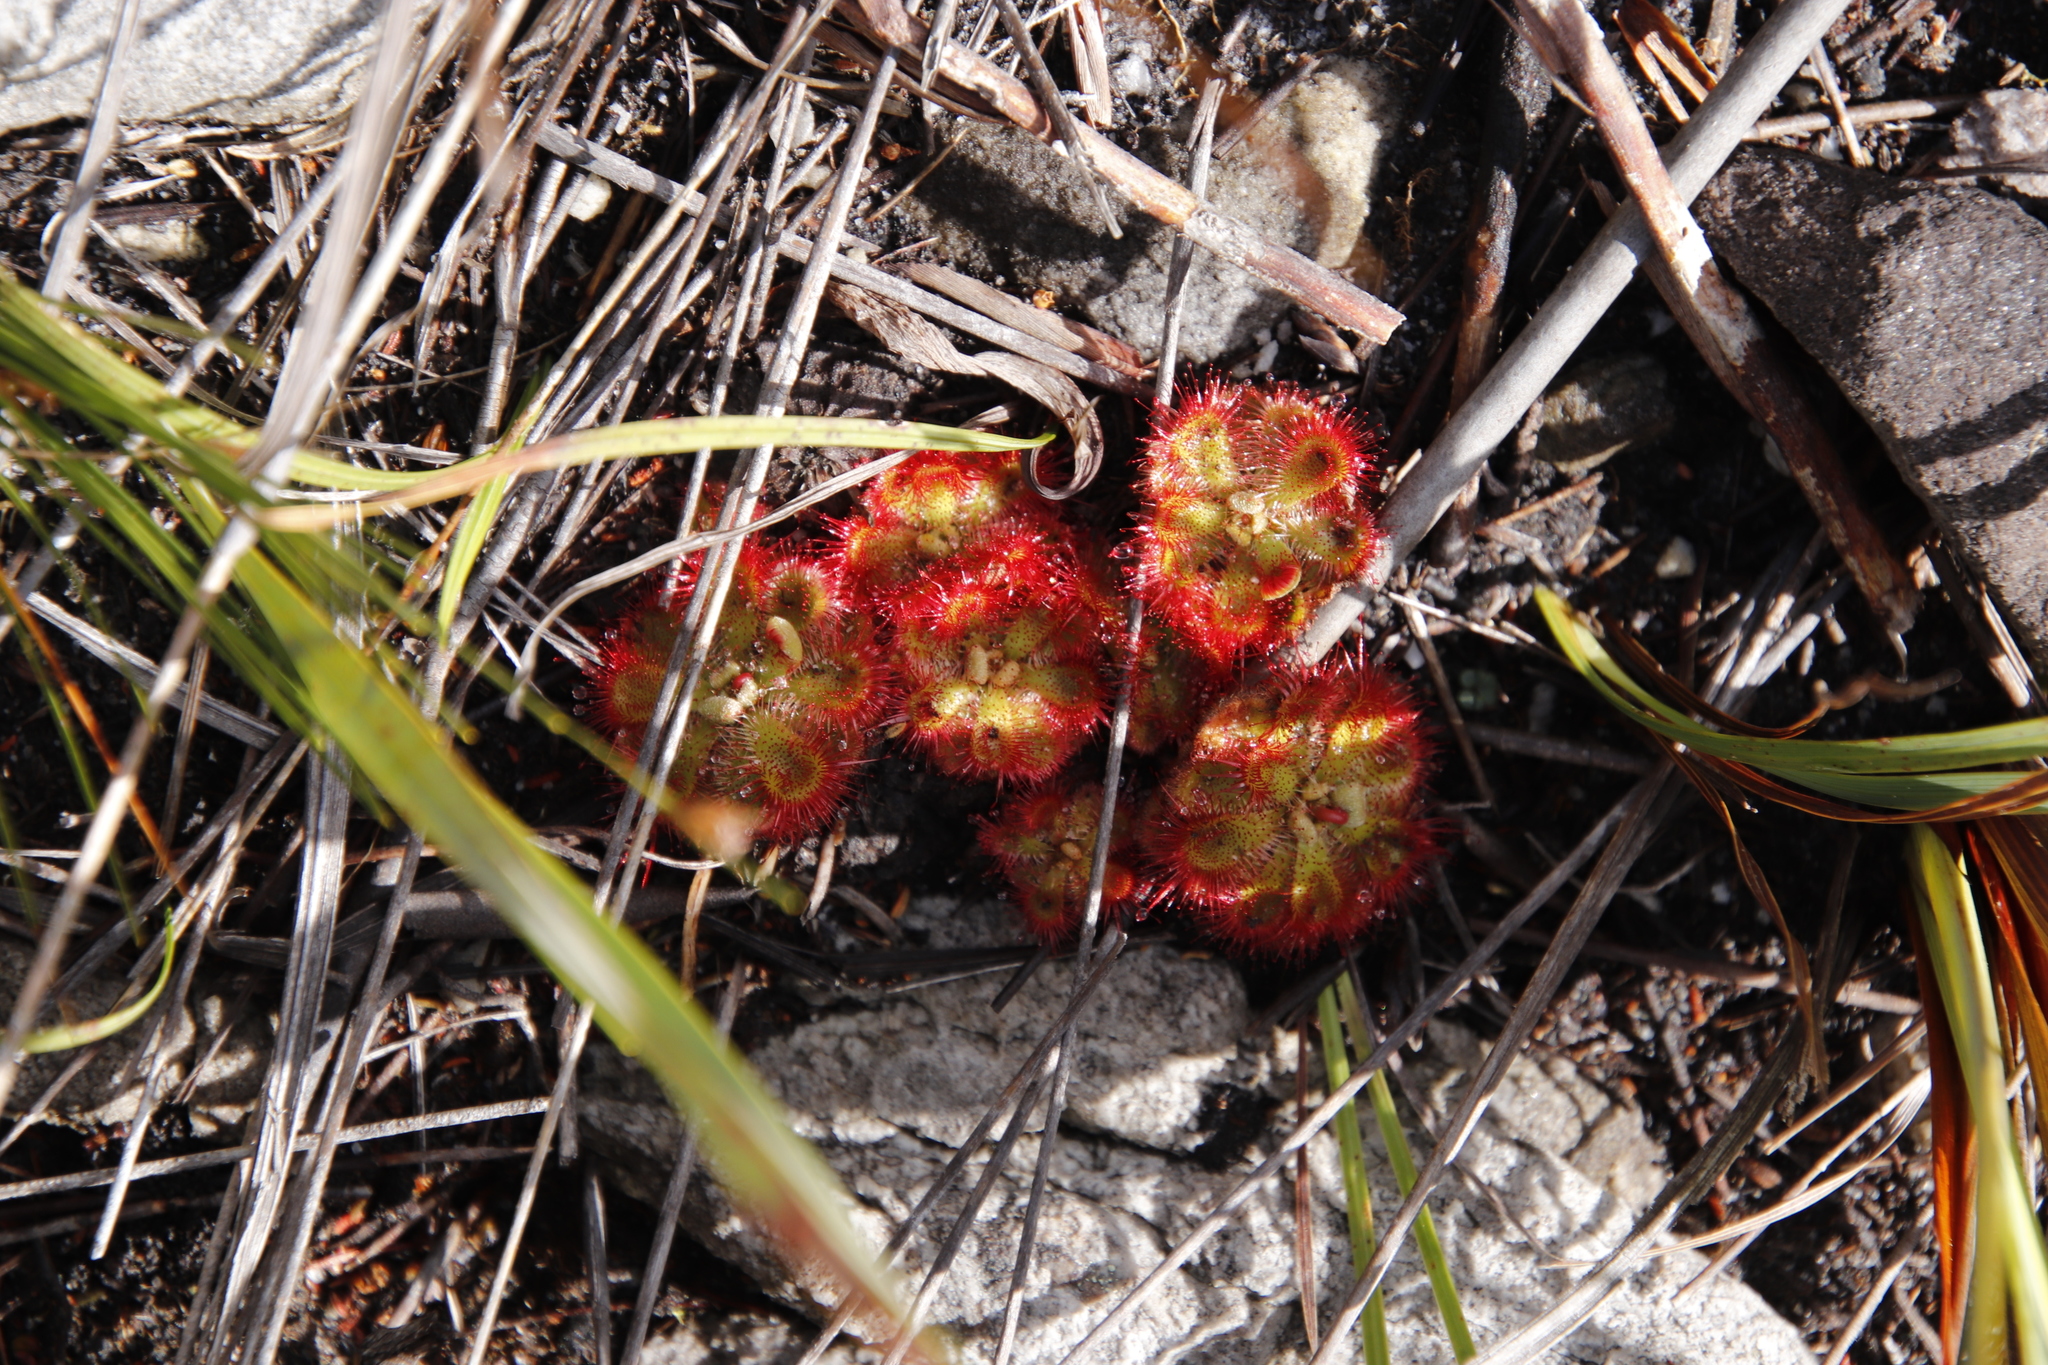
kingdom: Plantae
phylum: Tracheophyta
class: Magnoliopsida
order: Caryophyllales
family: Droseraceae
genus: Drosera
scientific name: Drosera xerophila
